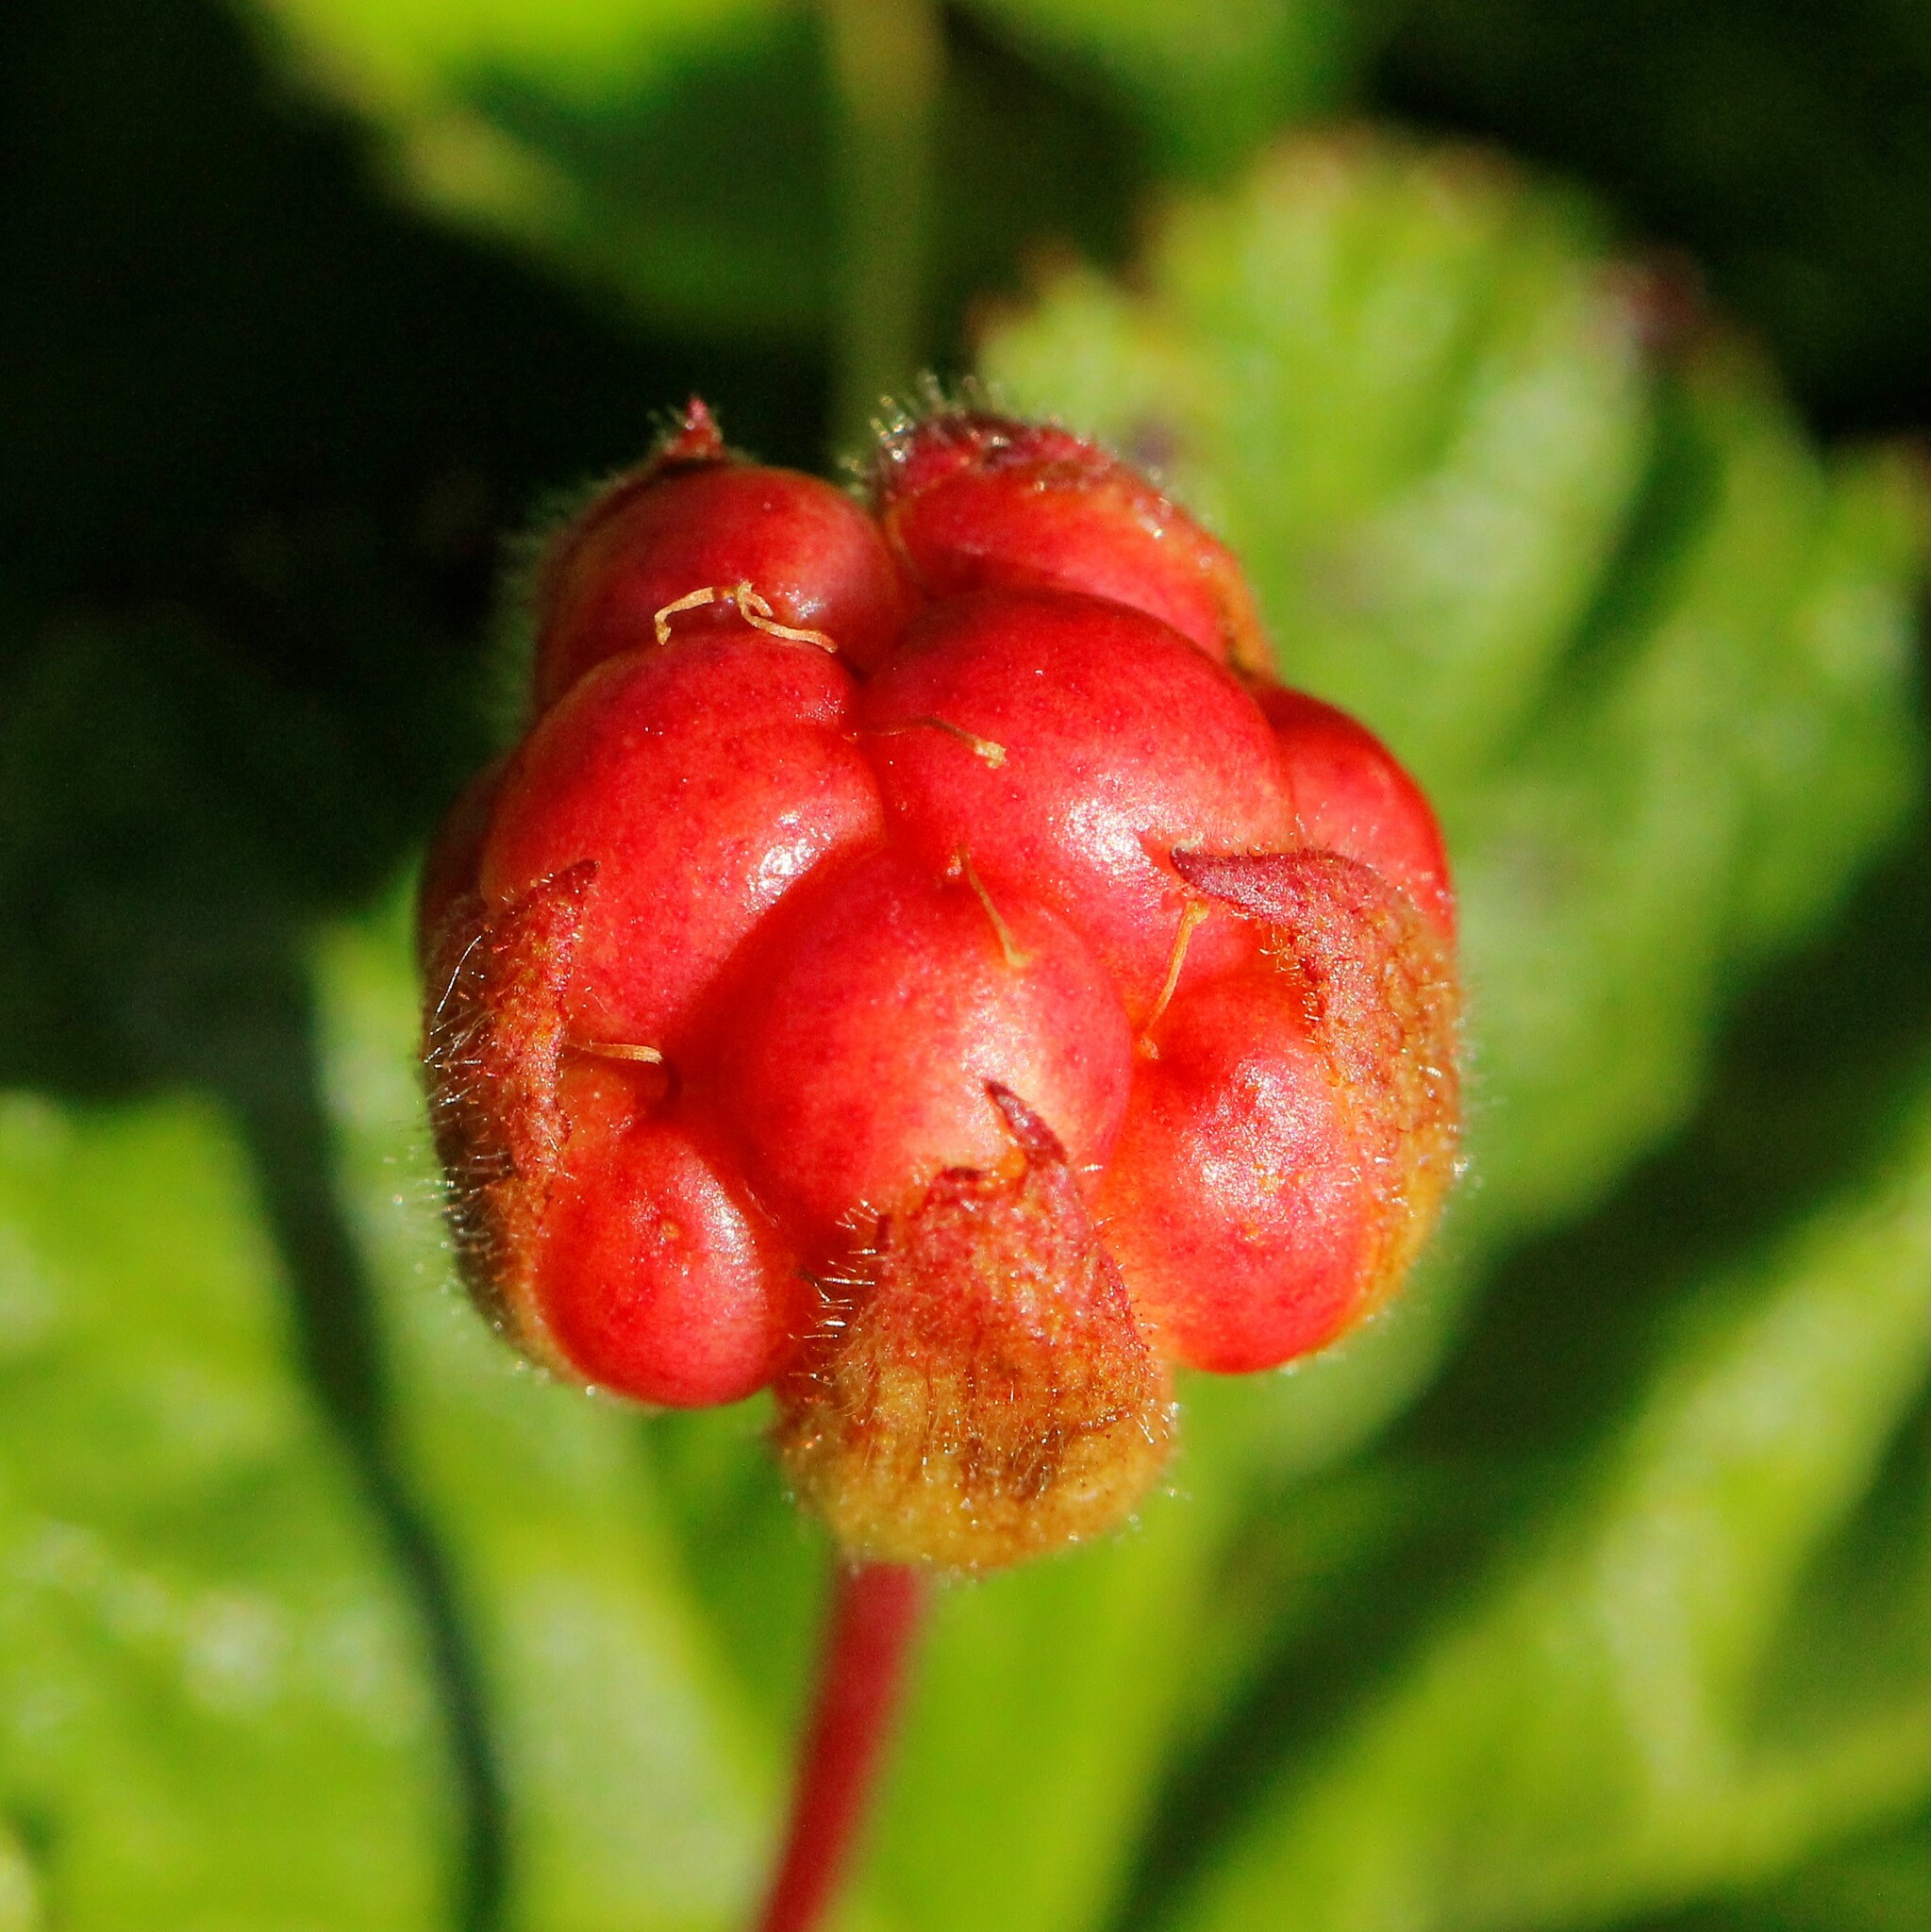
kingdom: Plantae
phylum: Tracheophyta
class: Magnoliopsida
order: Rosales
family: Rosaceae
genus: Rubus
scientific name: Rubus chamaemorus
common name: Cloudberry
